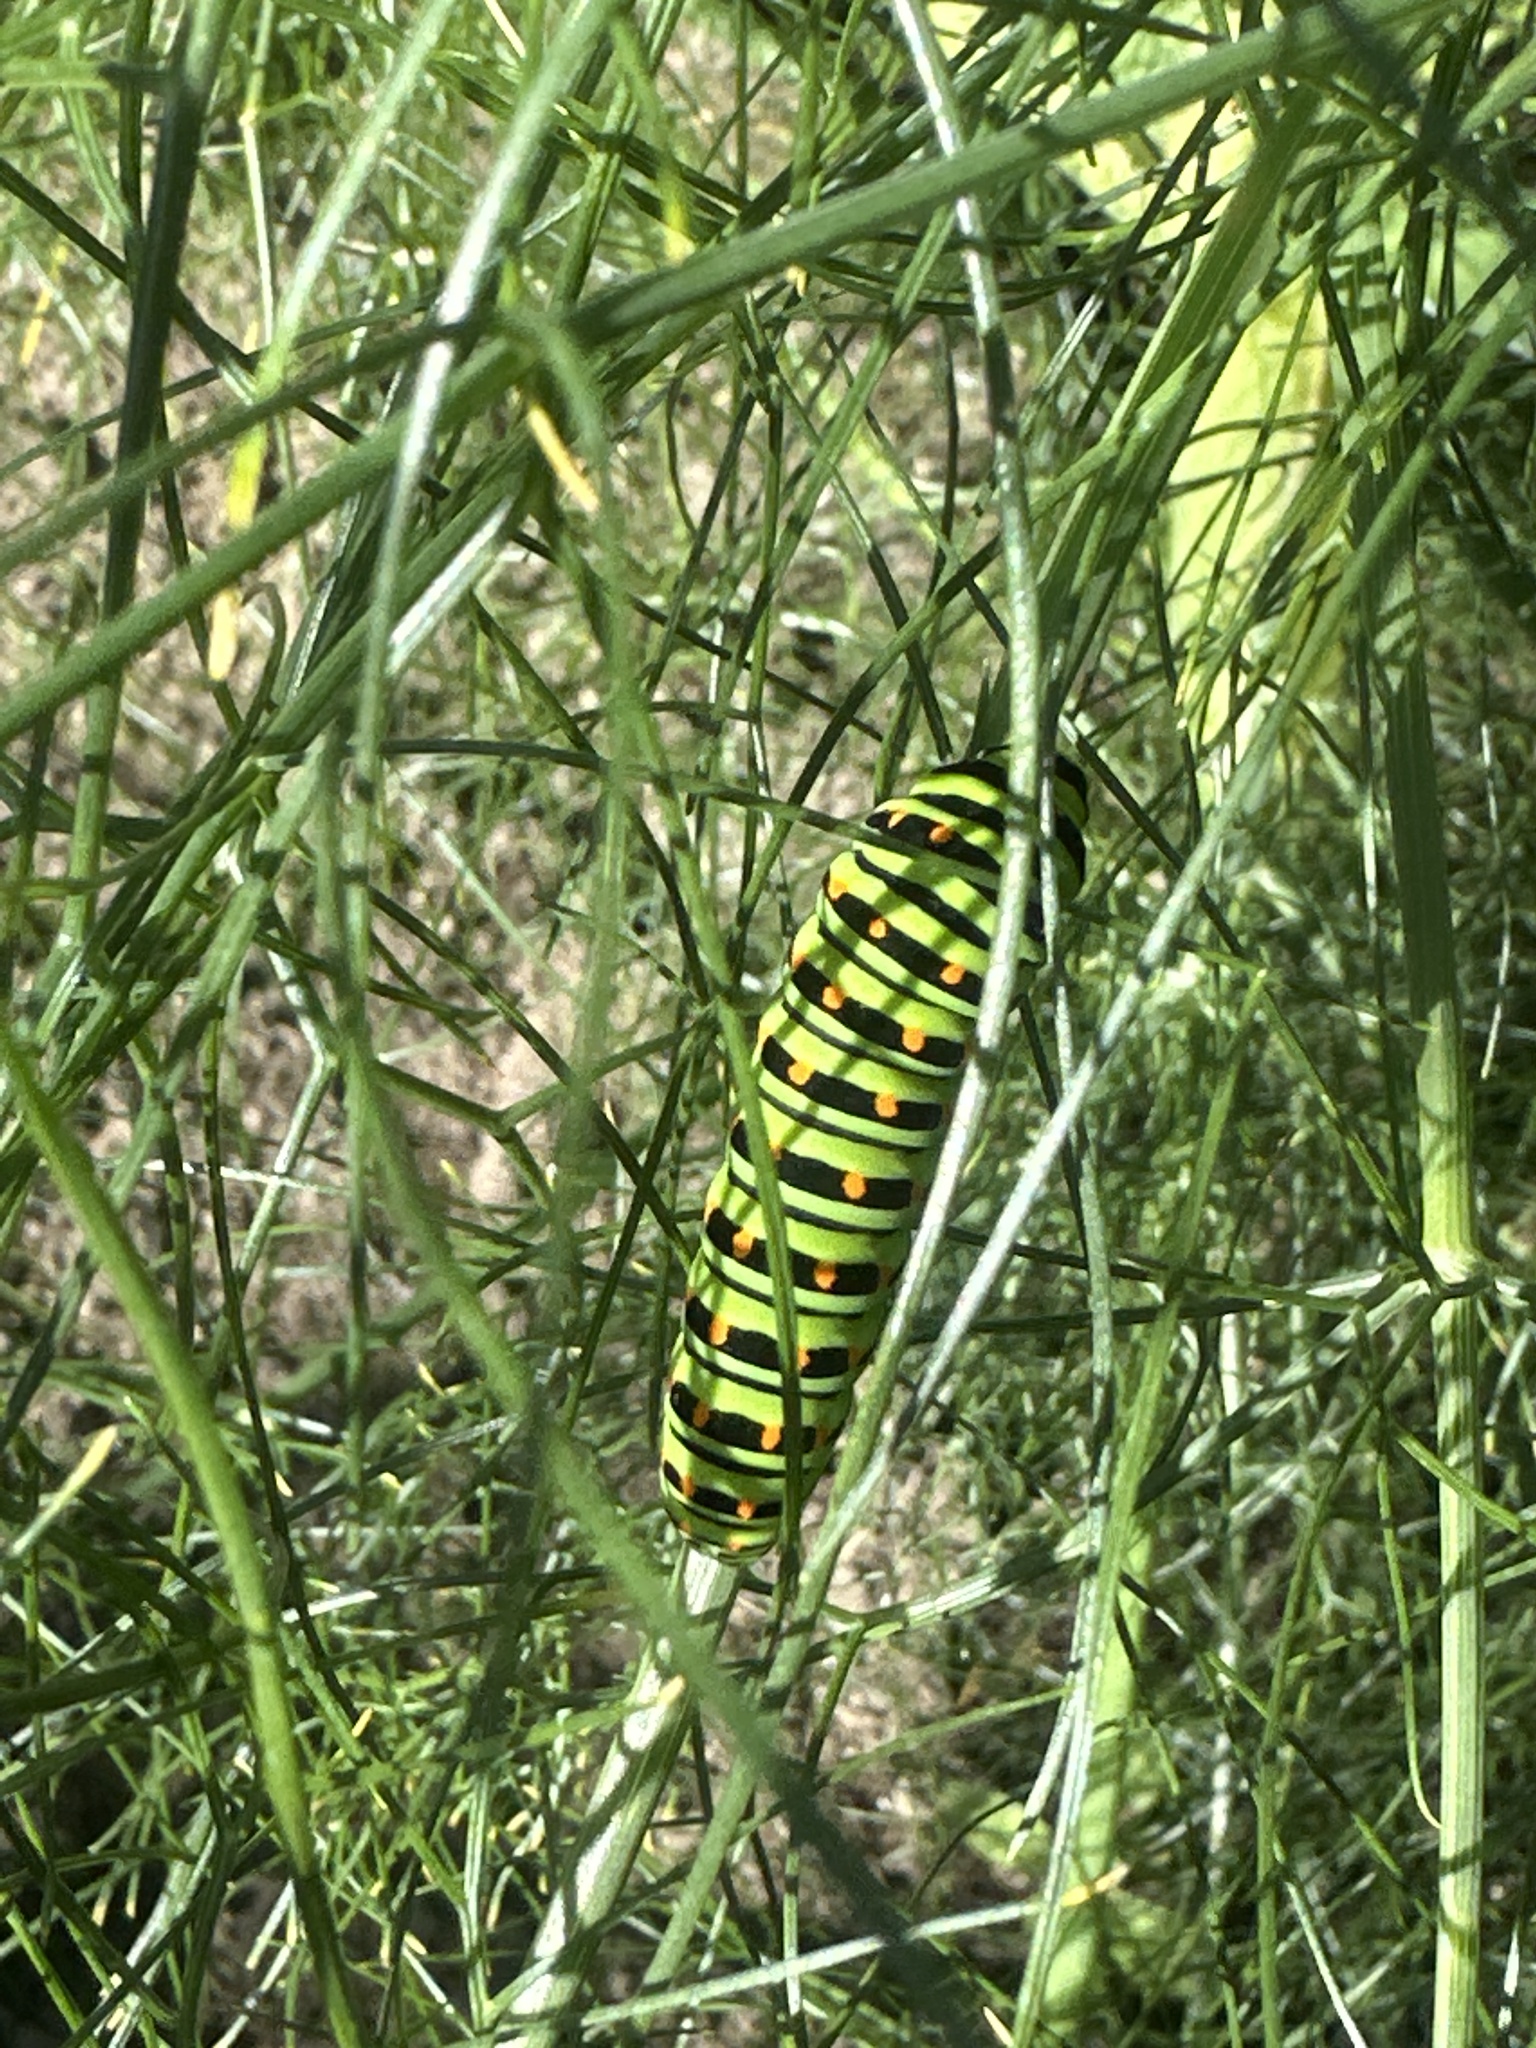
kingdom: Animalia
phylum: Arthropoda
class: Insecta
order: Lepidoptera
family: Papilionidae
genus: Papilio
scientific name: Papilio machaon
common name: Swallowtail
